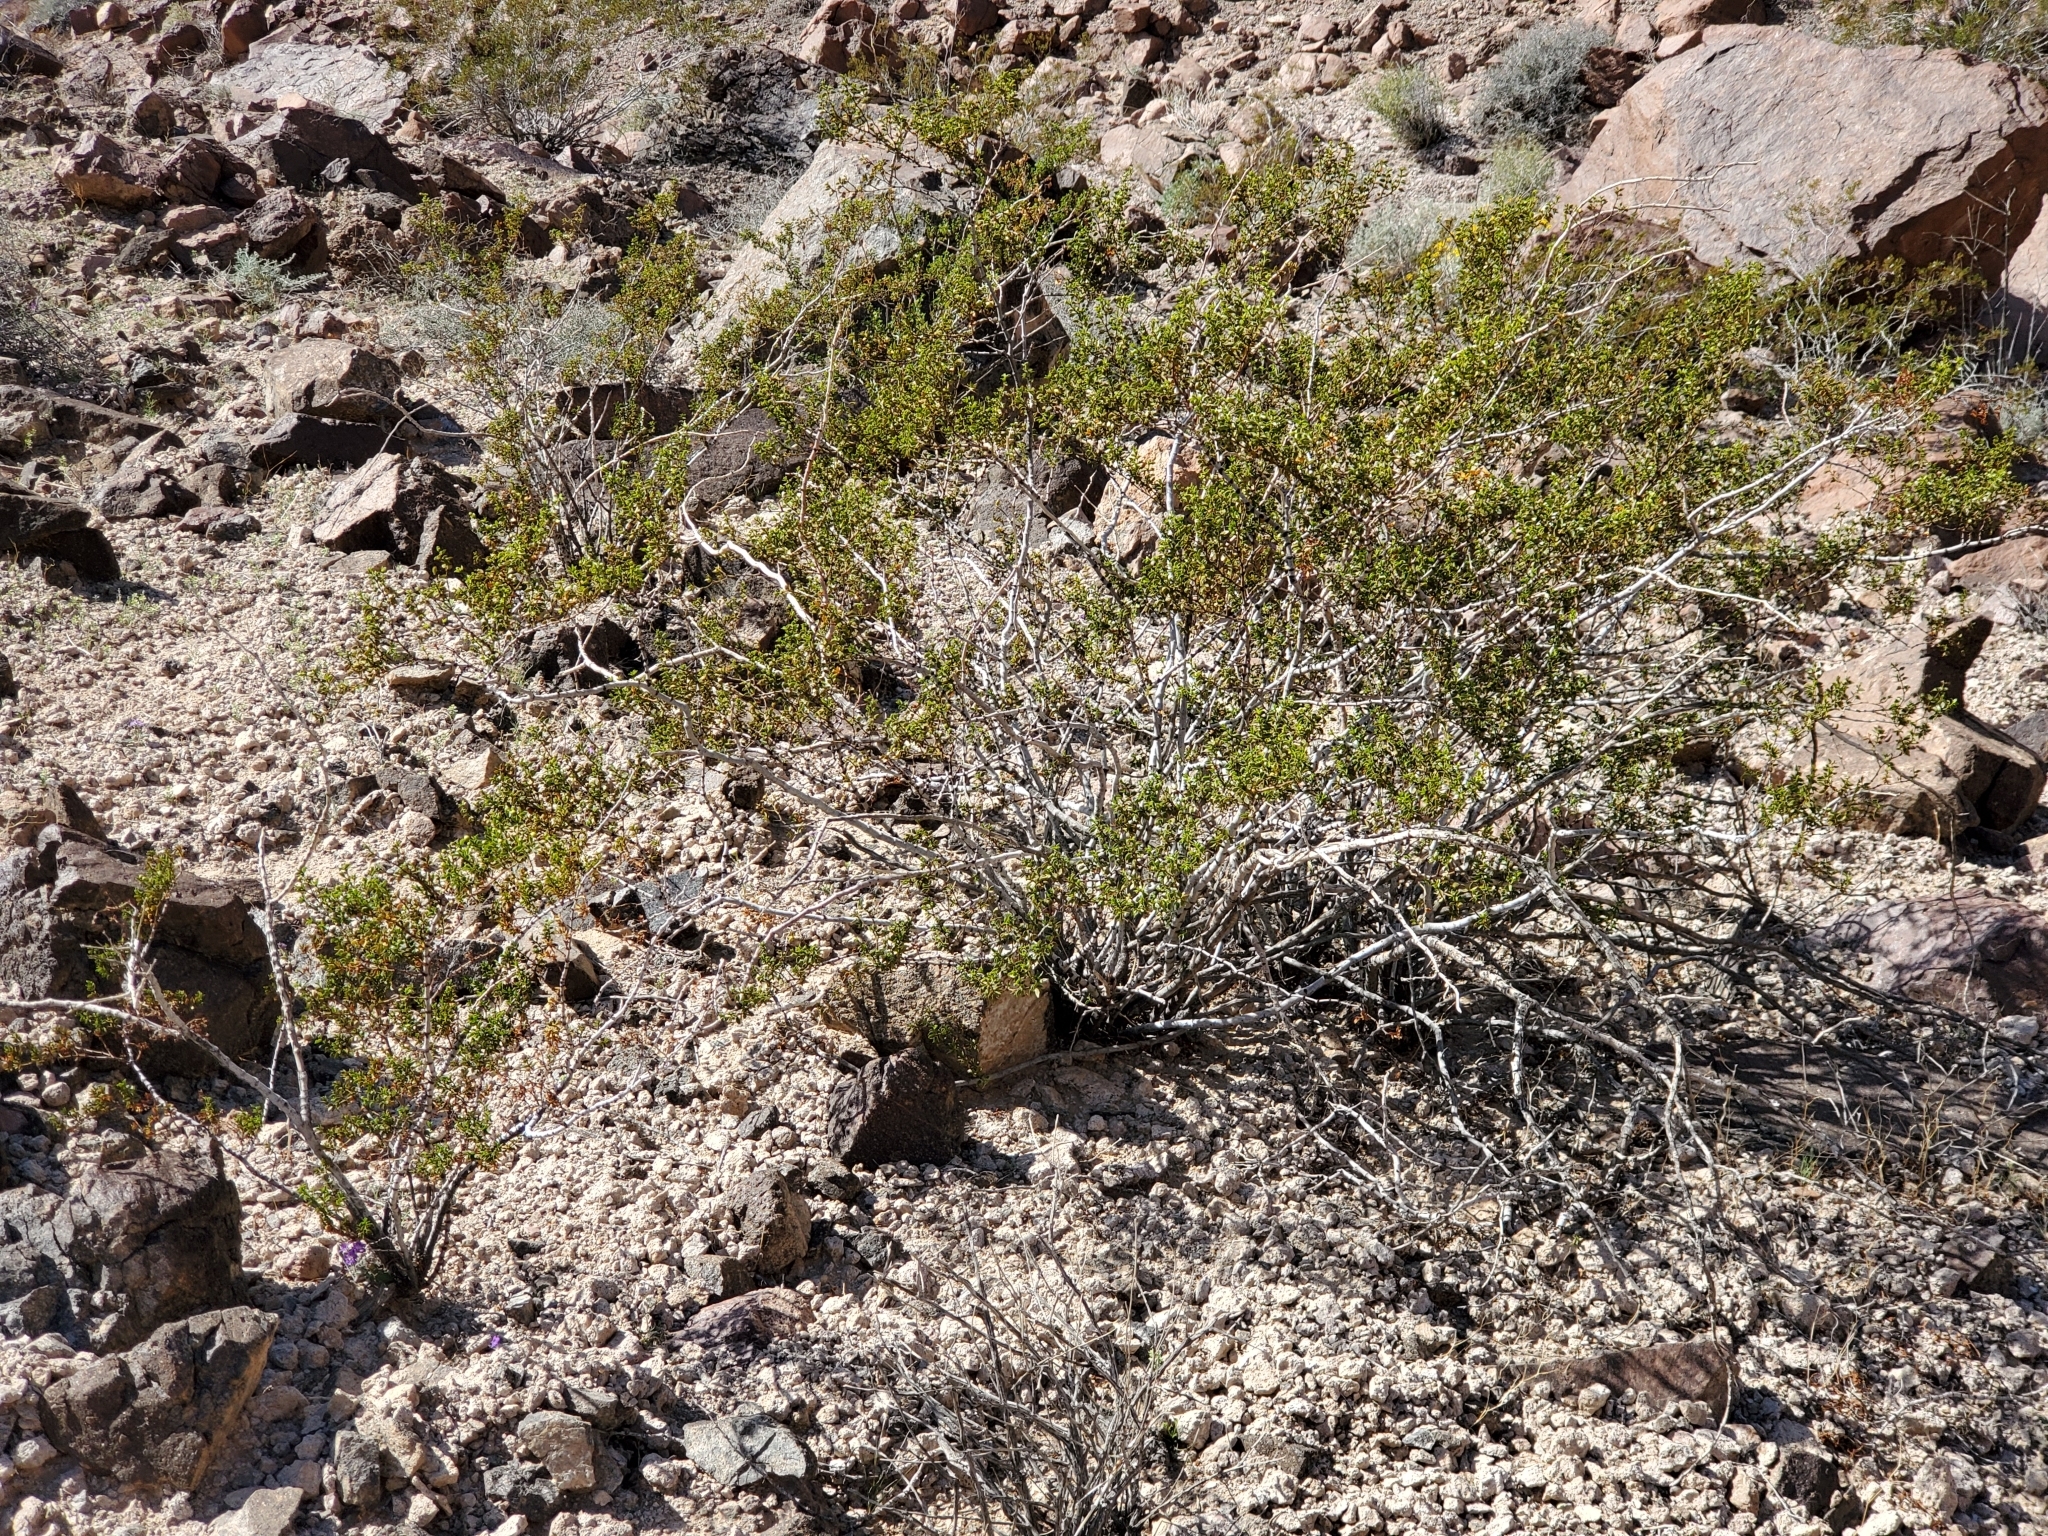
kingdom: Plantae
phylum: Tracheophyta
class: Magnoliopsida
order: Zygophyllales
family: Zygophyllaceae
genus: Larrea
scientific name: Larrea tridentata
